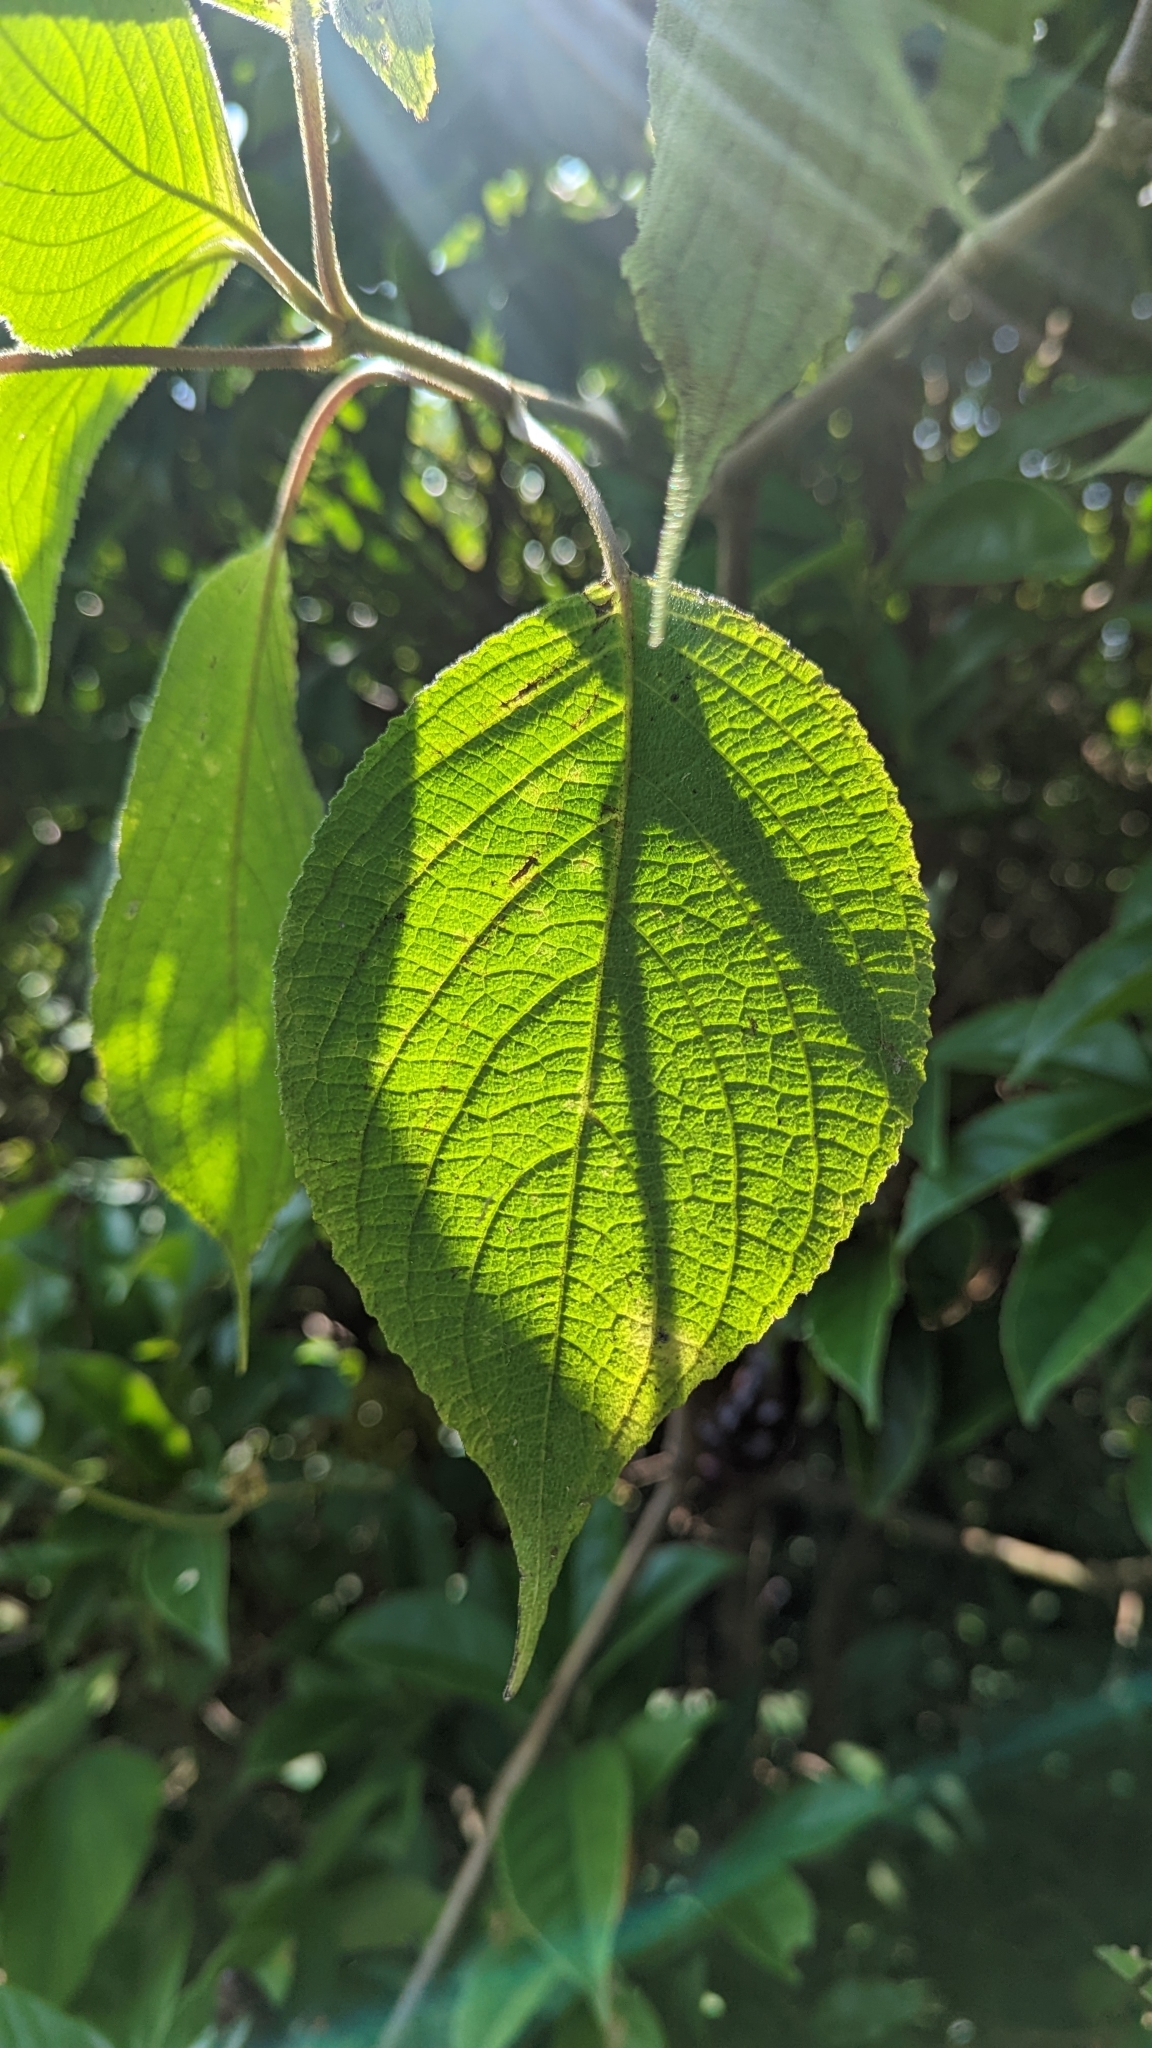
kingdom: Plantae
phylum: Tracheophyta
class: Magnoliopsida
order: Lamiales
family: Acanthaceae
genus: Strobilanthes
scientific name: Strobilanthes lurida
